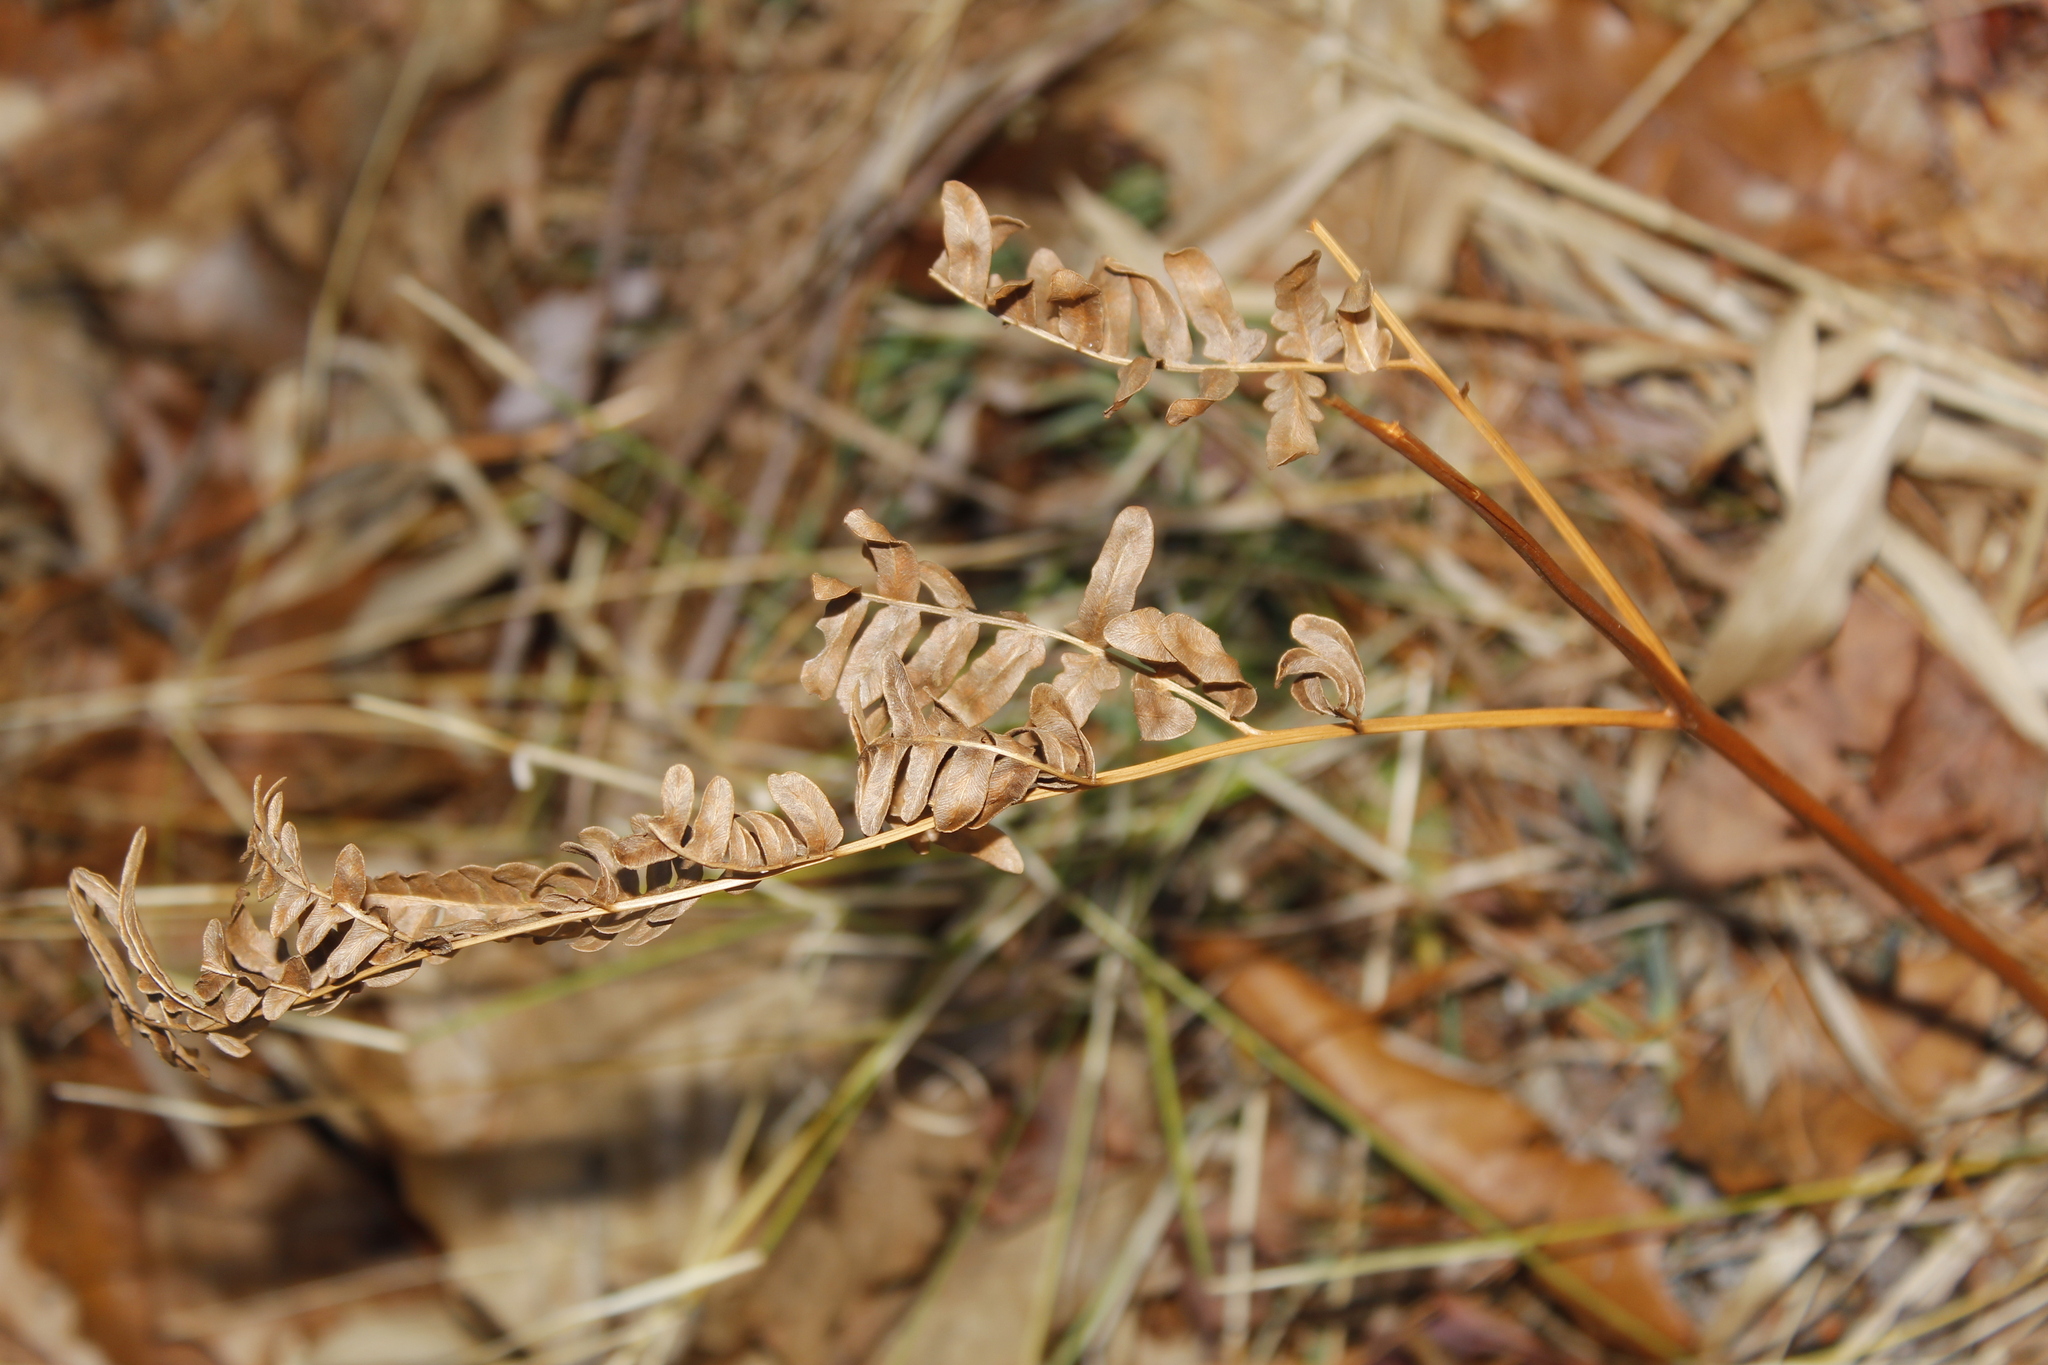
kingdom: Plantae
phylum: Tracheophyta
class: Polypodiopsida
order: Polypodiales
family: Dennstaedtiaceae
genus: Pteridium
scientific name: Pteridium aquilinum
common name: Bracken
